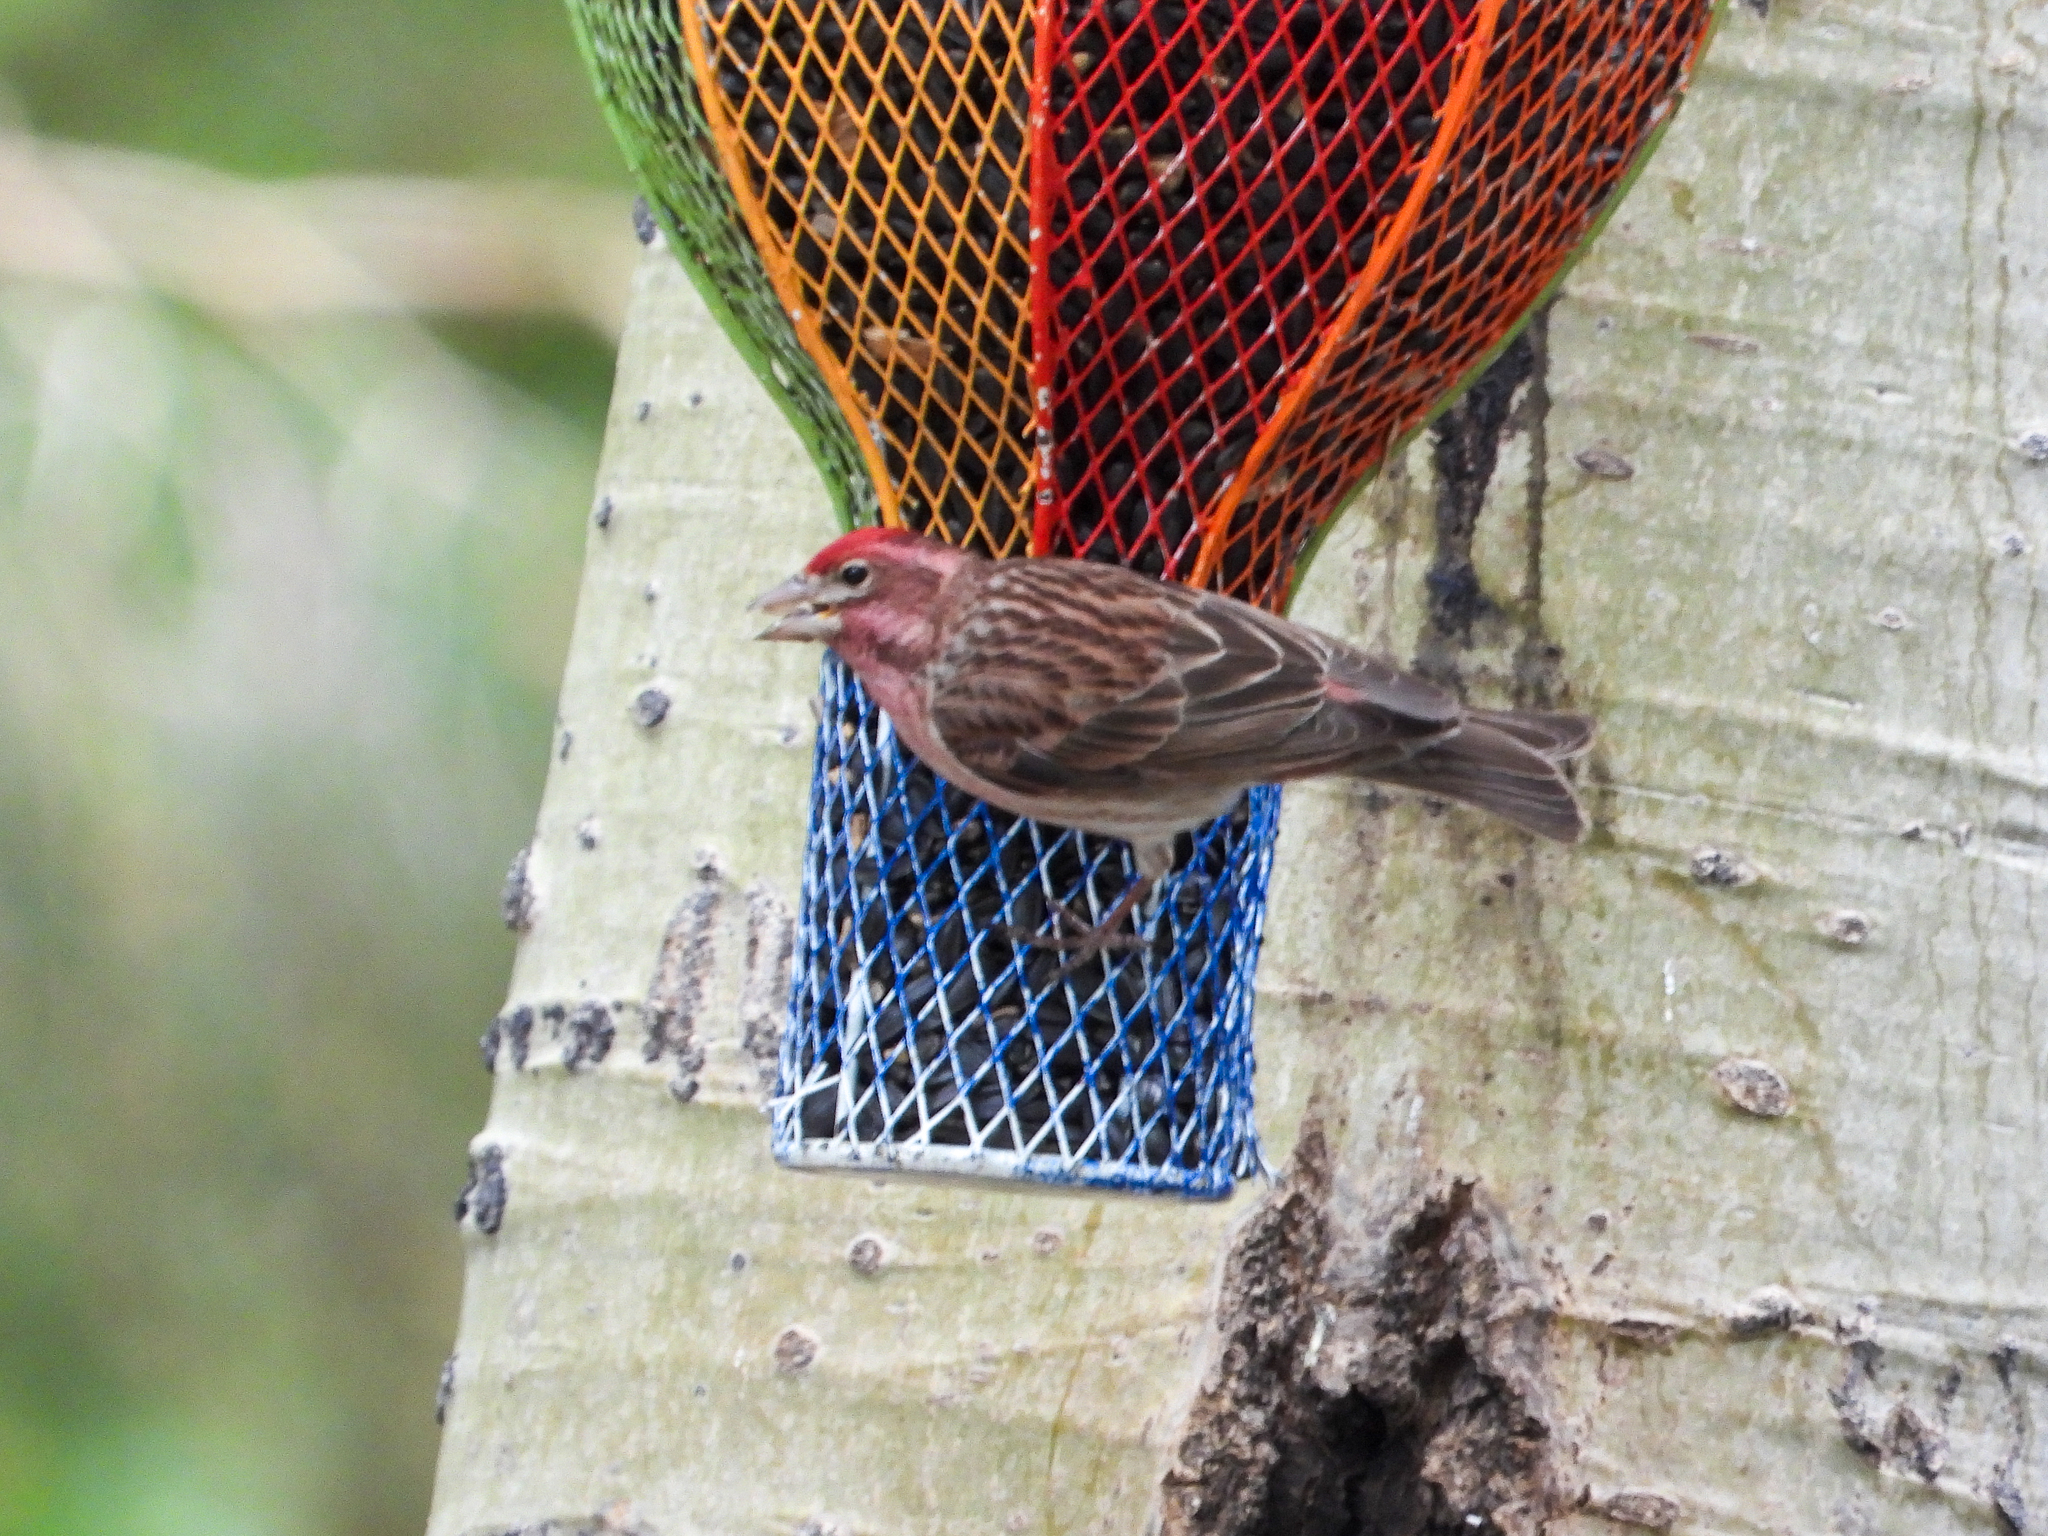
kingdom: Animalia
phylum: Chordata
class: Aves
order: Passeriformes
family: Fringillidae
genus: Haemorhous
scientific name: Haemorhous cassinii
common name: Cassin's finch
